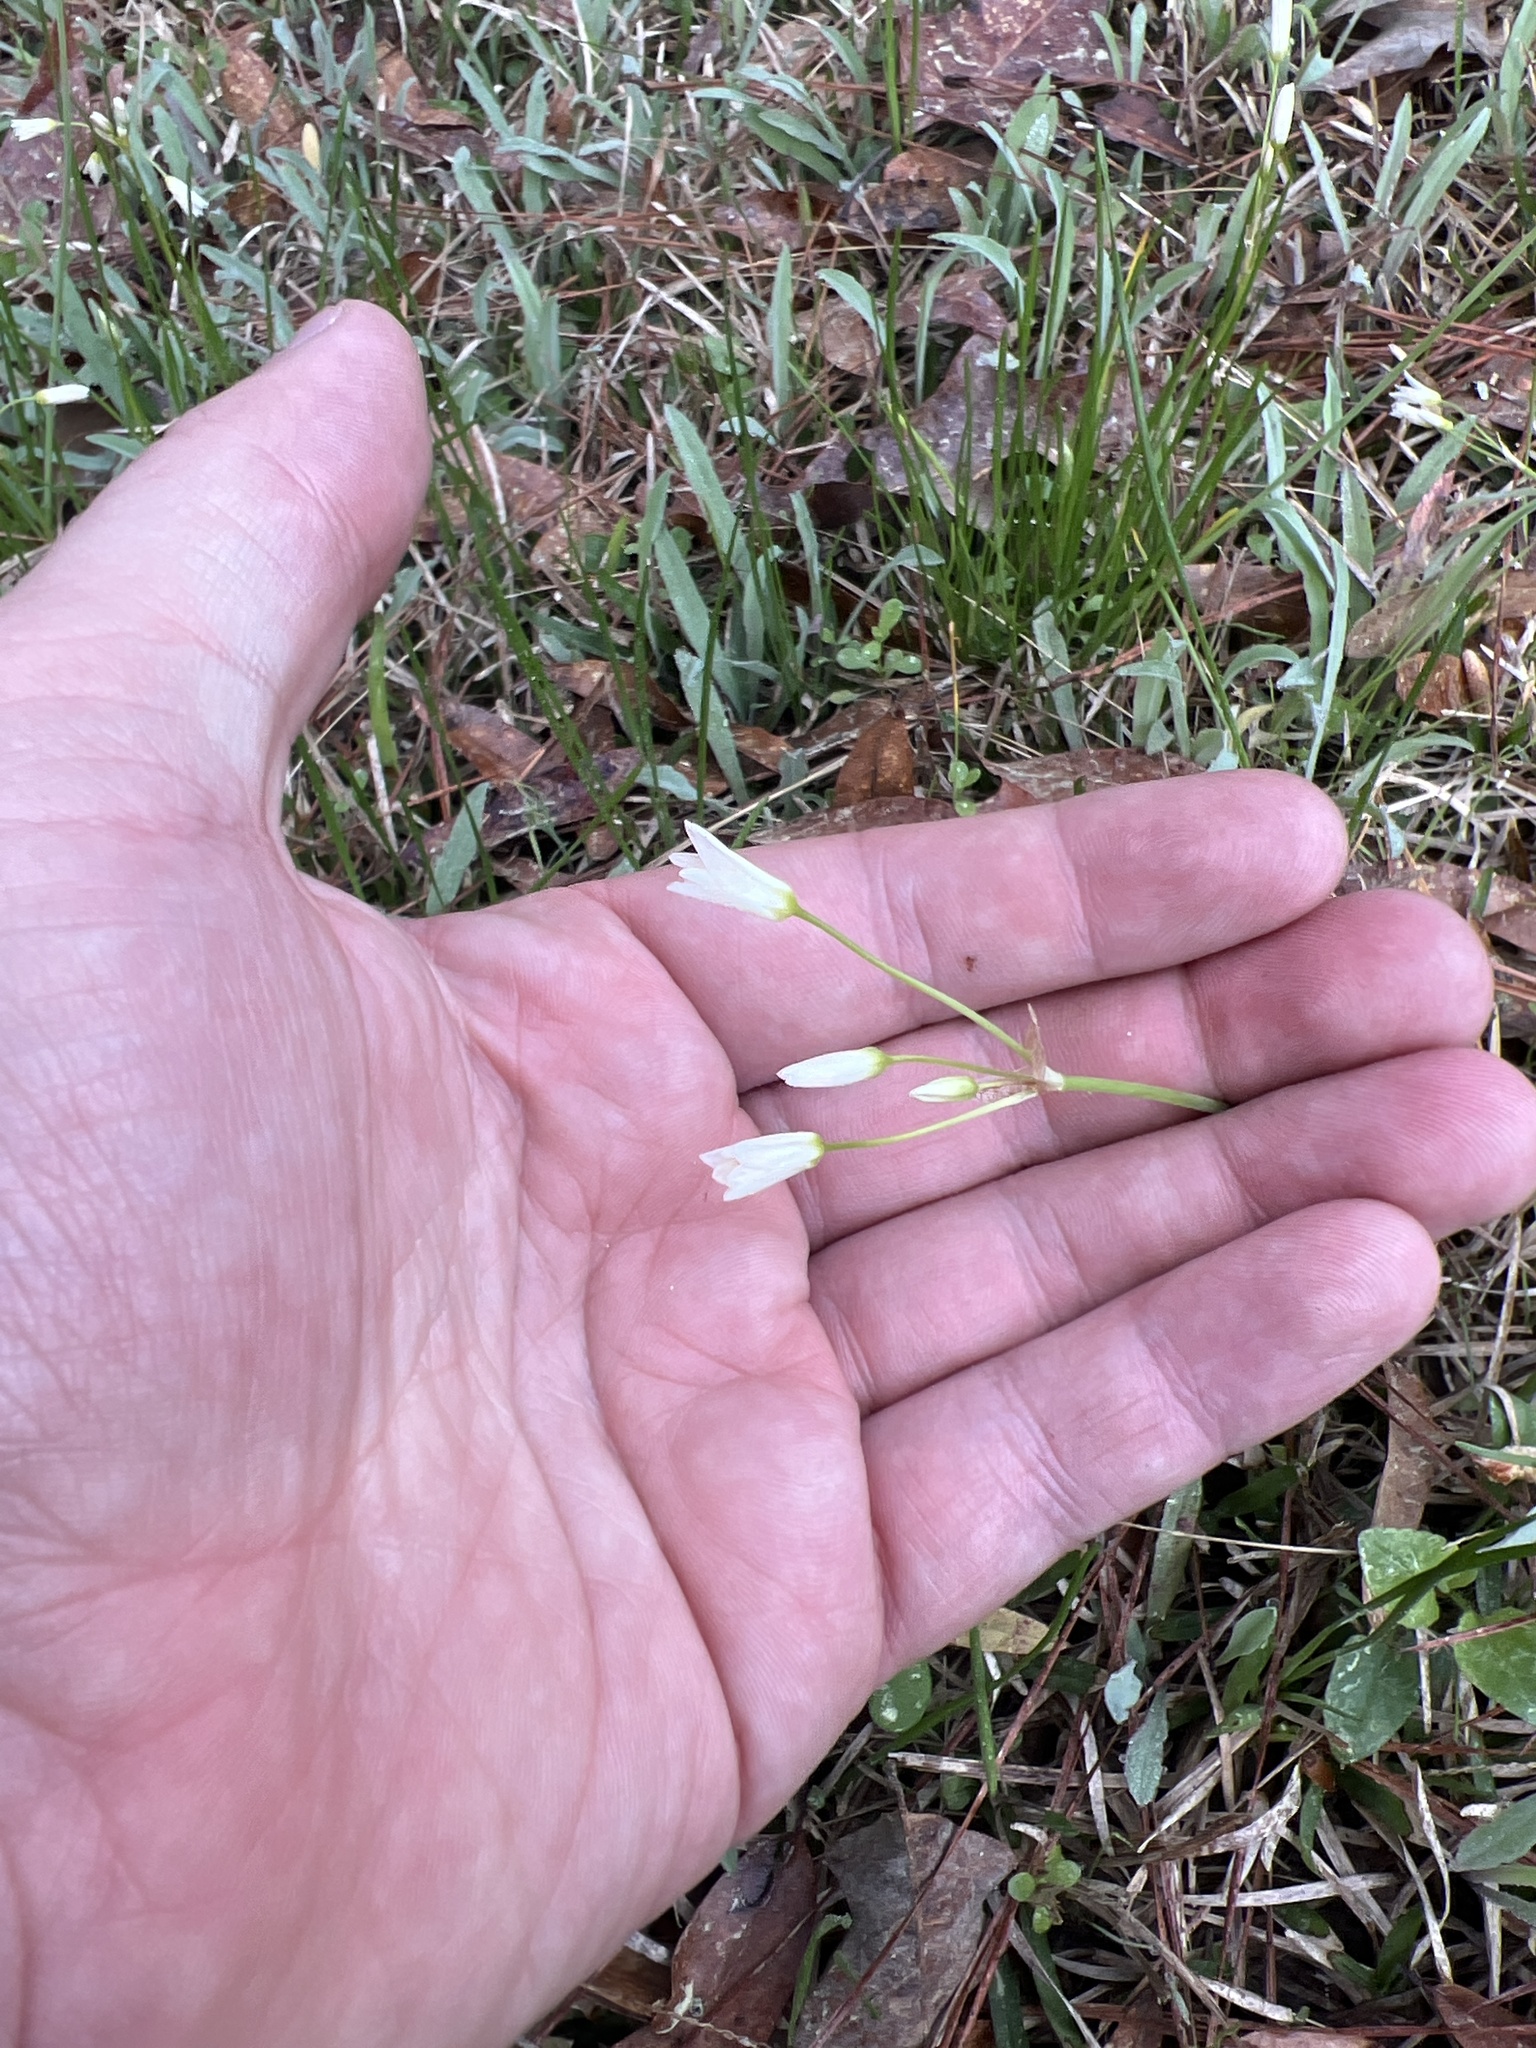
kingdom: Plantae
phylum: Tracheophyta
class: Liliopsida
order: Asparagales
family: Amaryllidaceae
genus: Nothoscordum
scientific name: Nothoscordum bivalve
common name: Crow-poison
